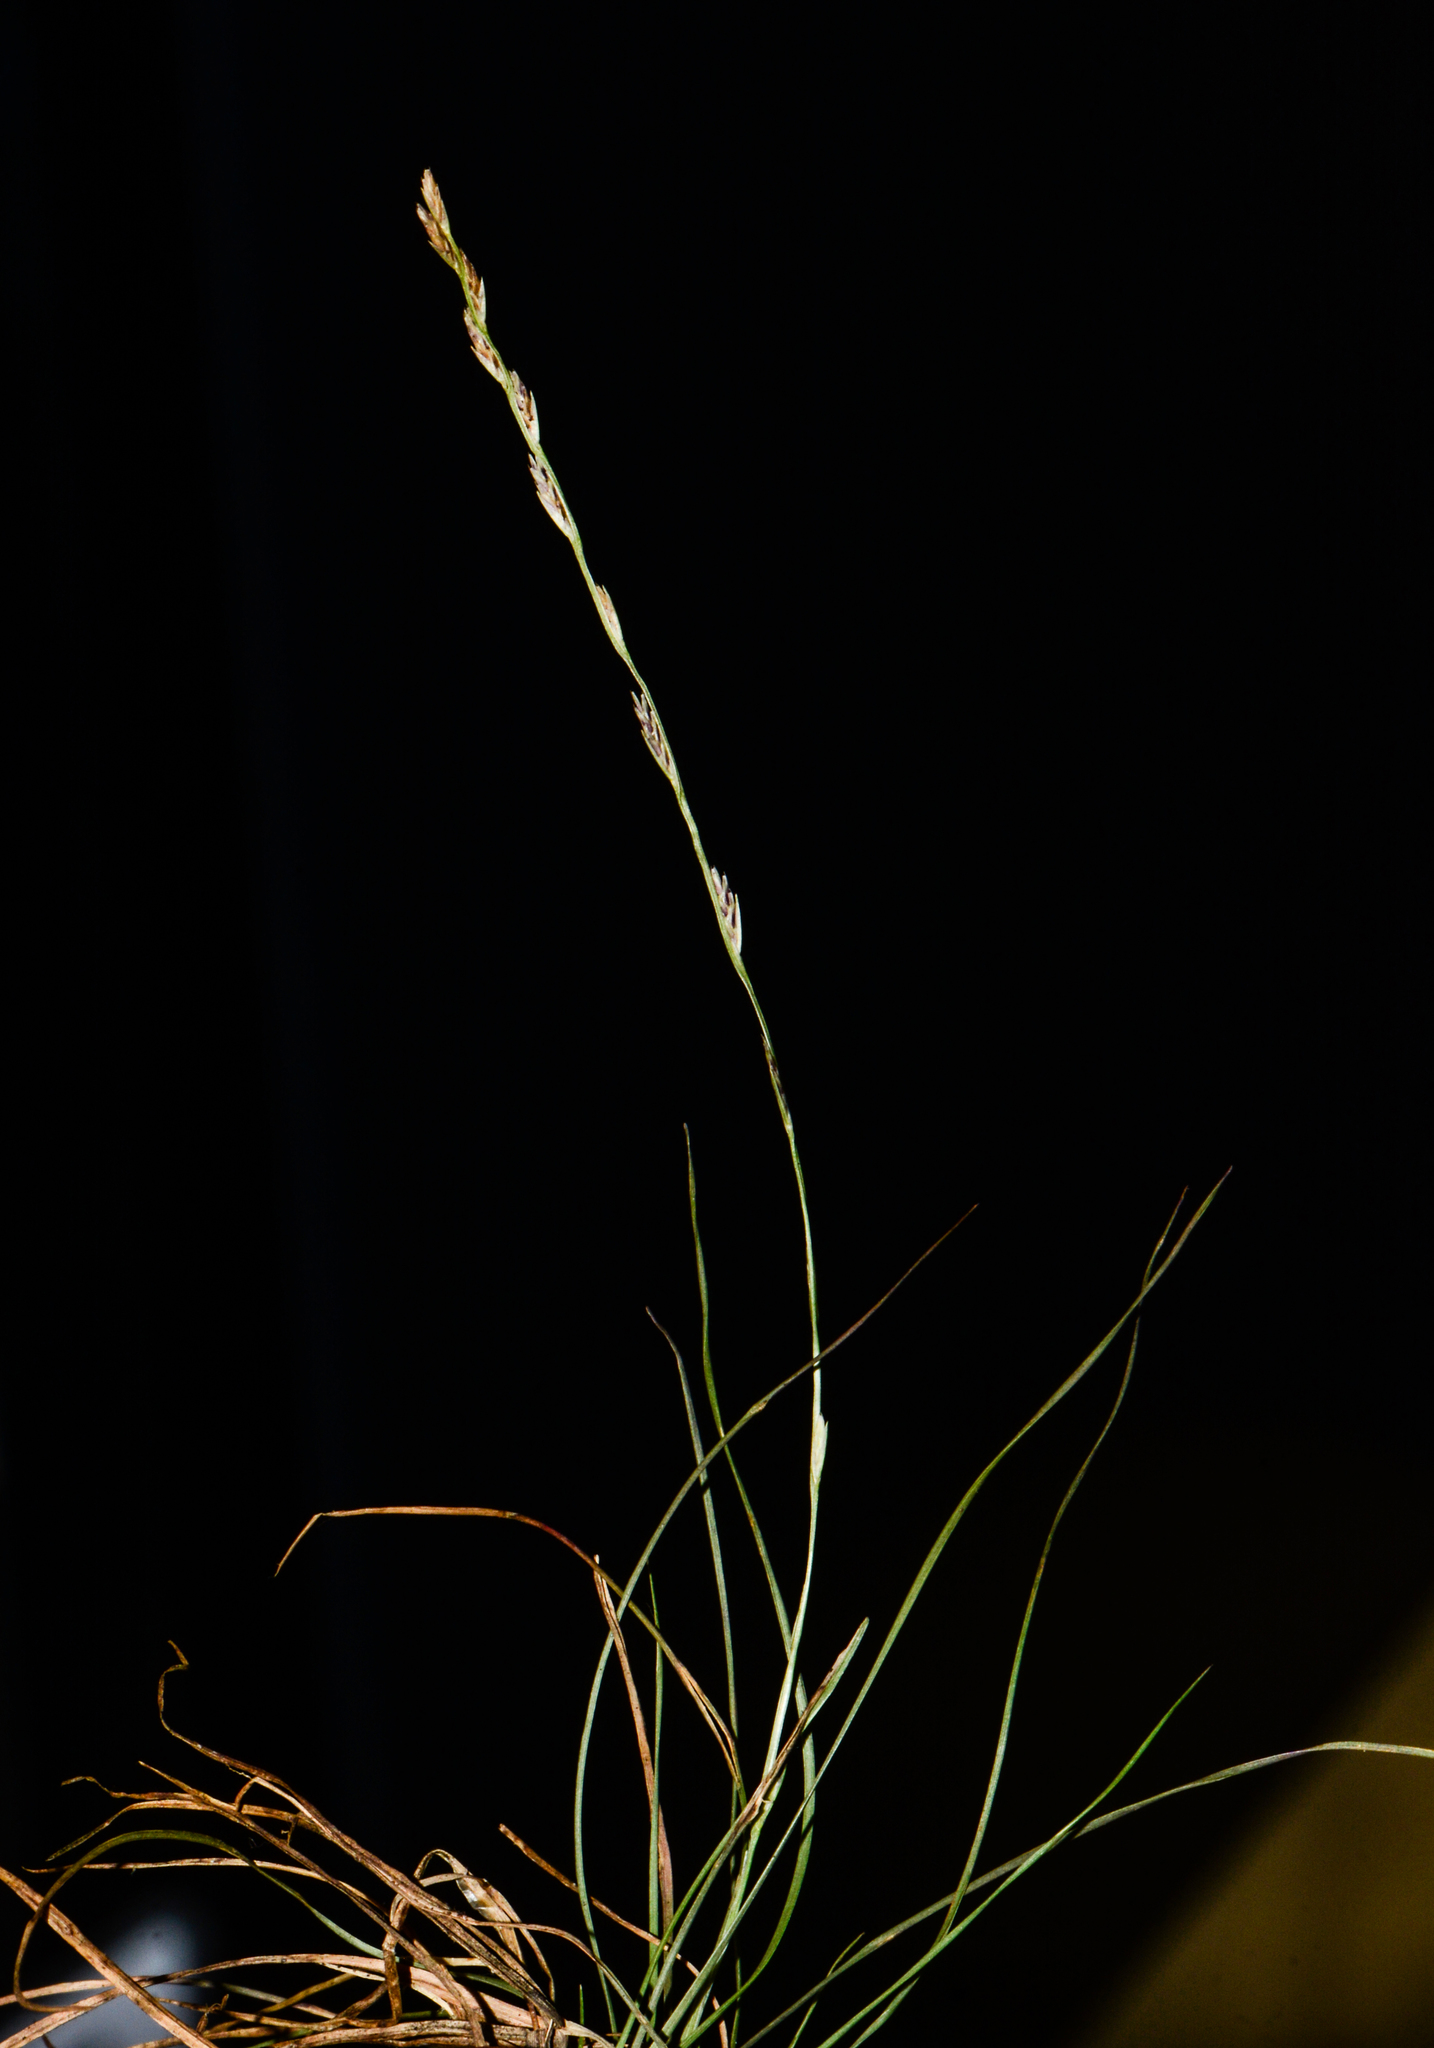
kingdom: Plantae
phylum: Tracheophyta
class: Liliopsida
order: Poales
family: Poaceae
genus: Tripogon
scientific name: Tripogon purpurascens
